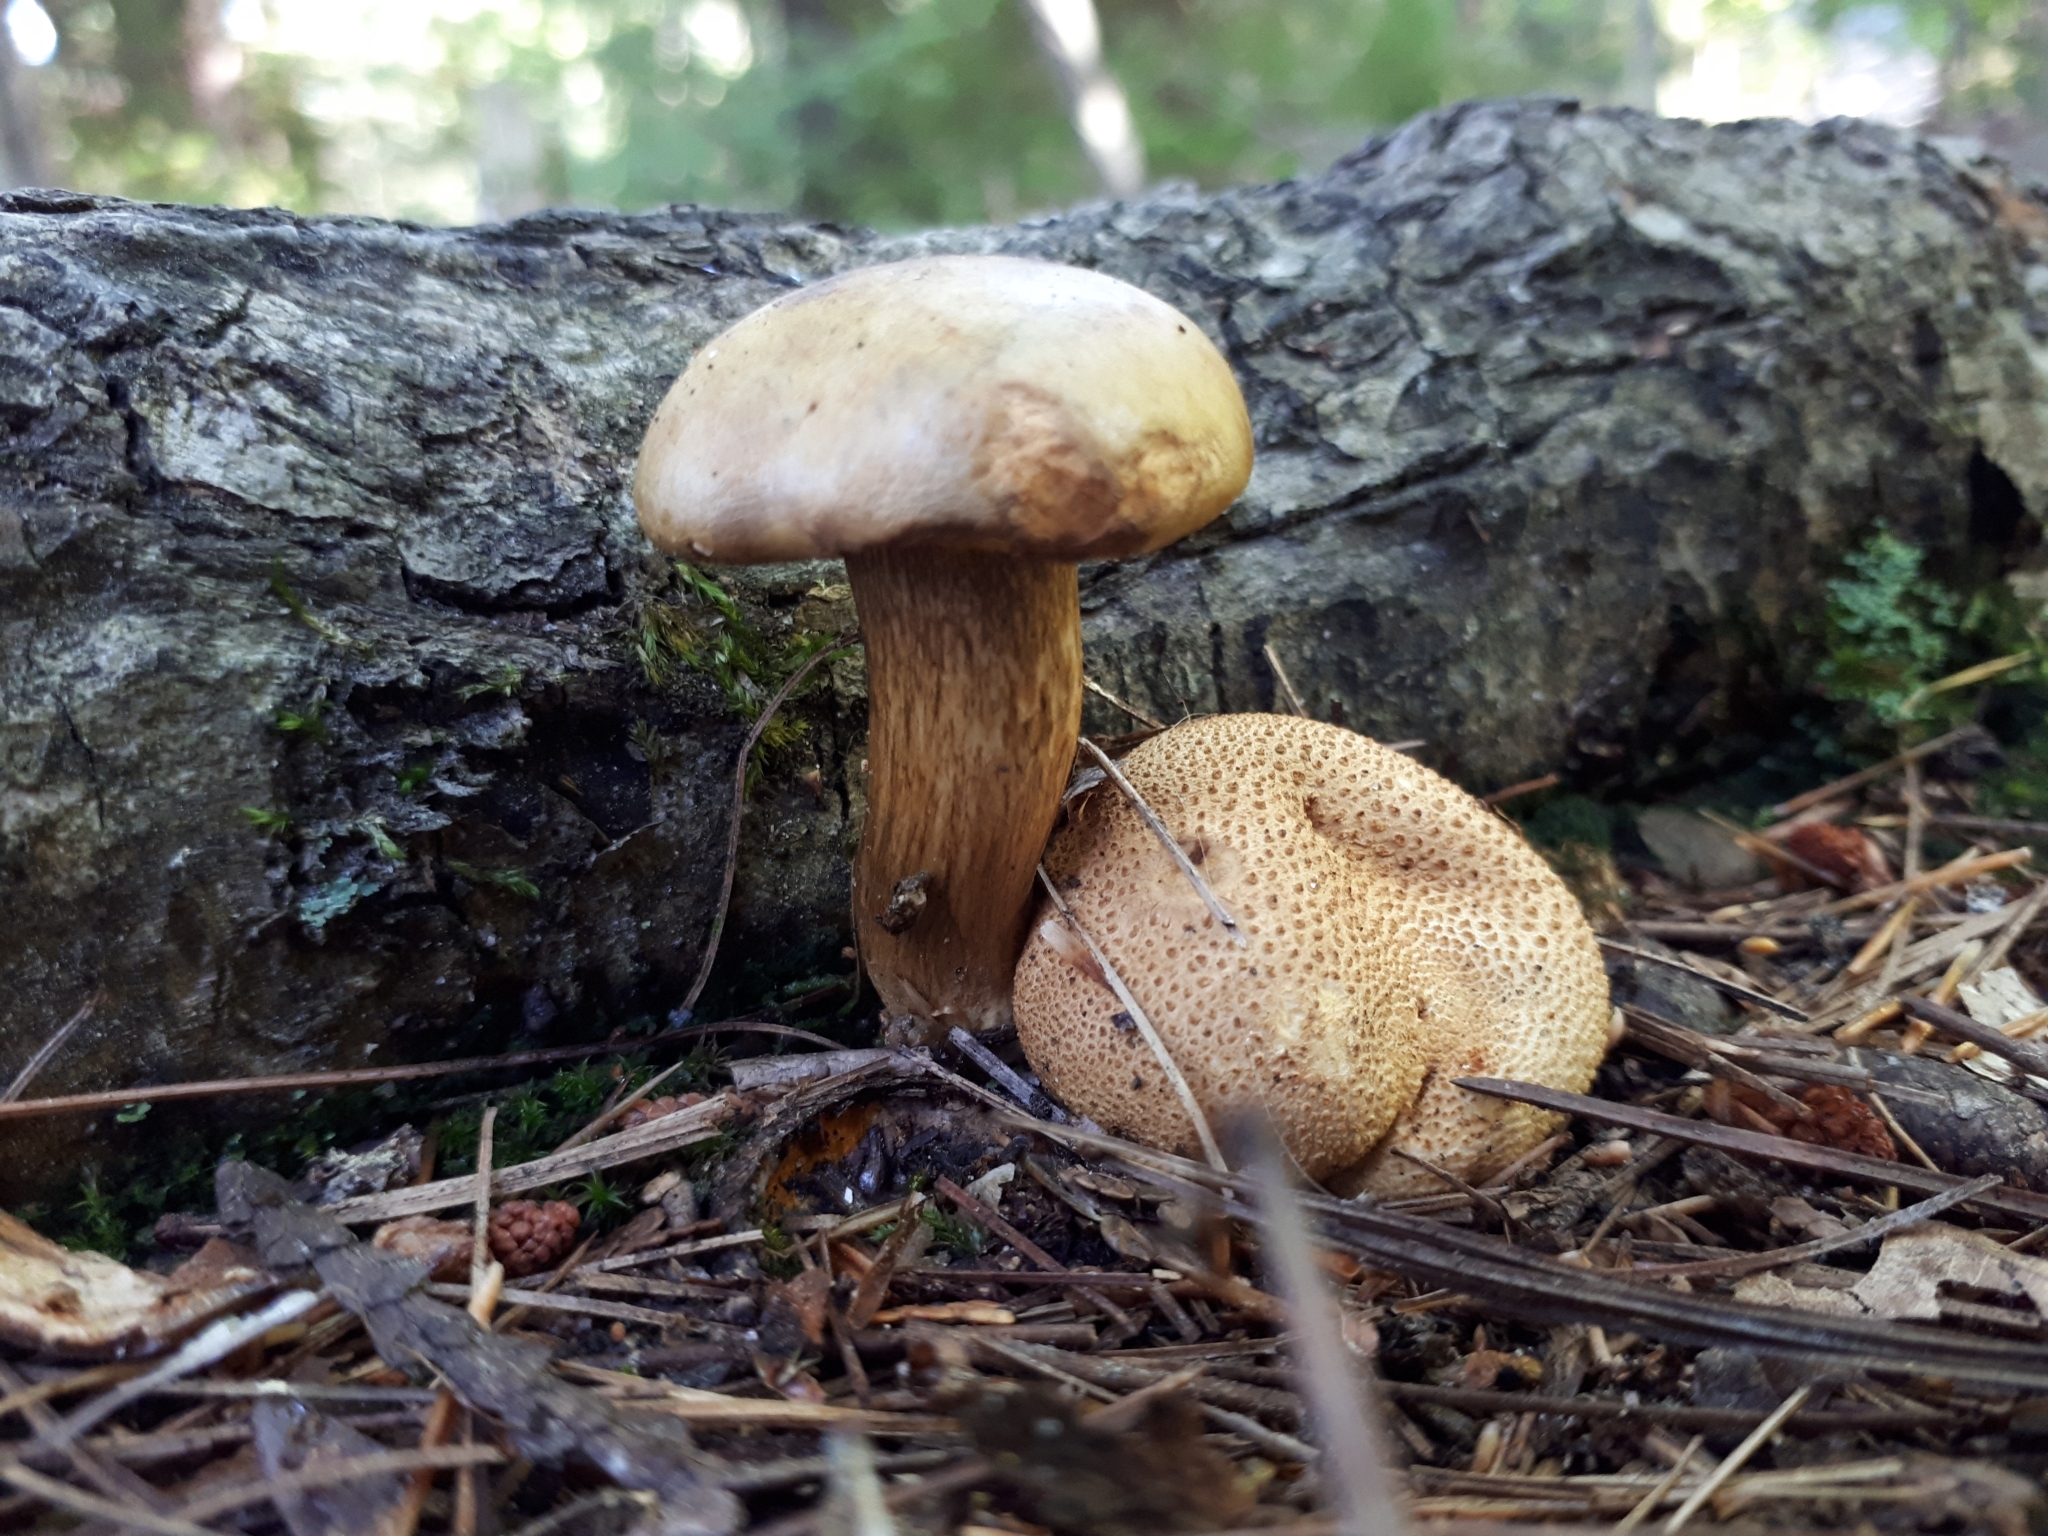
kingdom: Fungi
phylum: Basidiomycota
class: Agaricomycetes
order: Boletales
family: Boletaceae
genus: Pseudoboletus
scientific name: Pseudoboletus parasiticus
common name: Parasitic bolete
